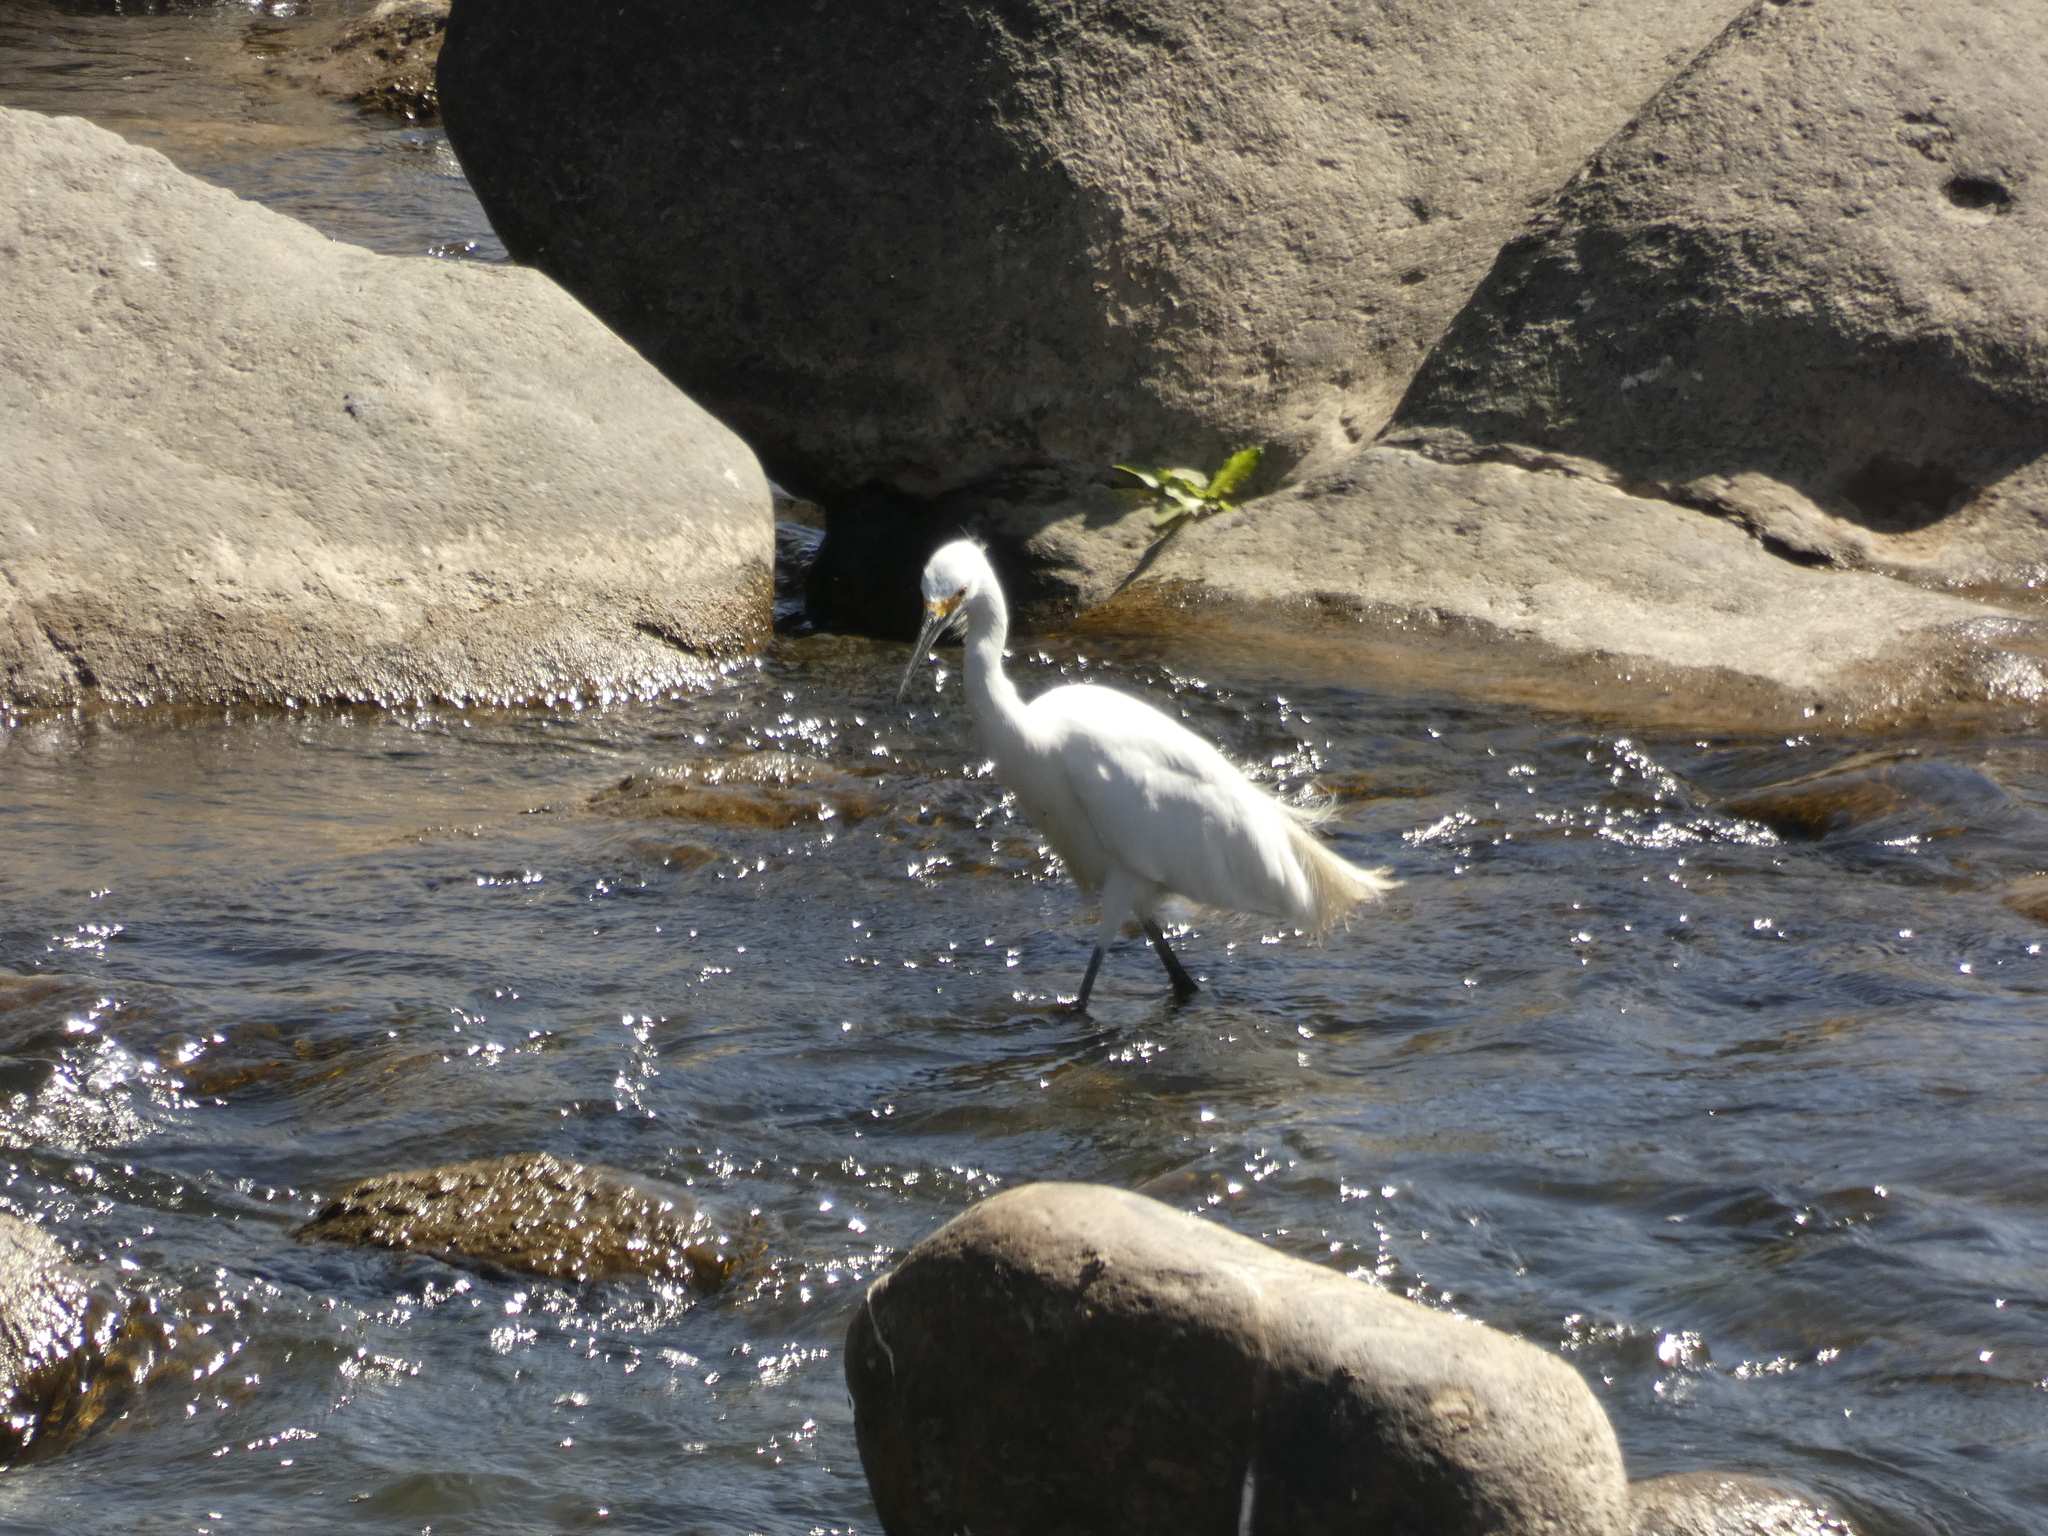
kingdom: Animalia
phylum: Chordata
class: Aves
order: Pelecaniformes
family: Ardeidae
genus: Egretta
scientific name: Egretta thula
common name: Snowy egret
